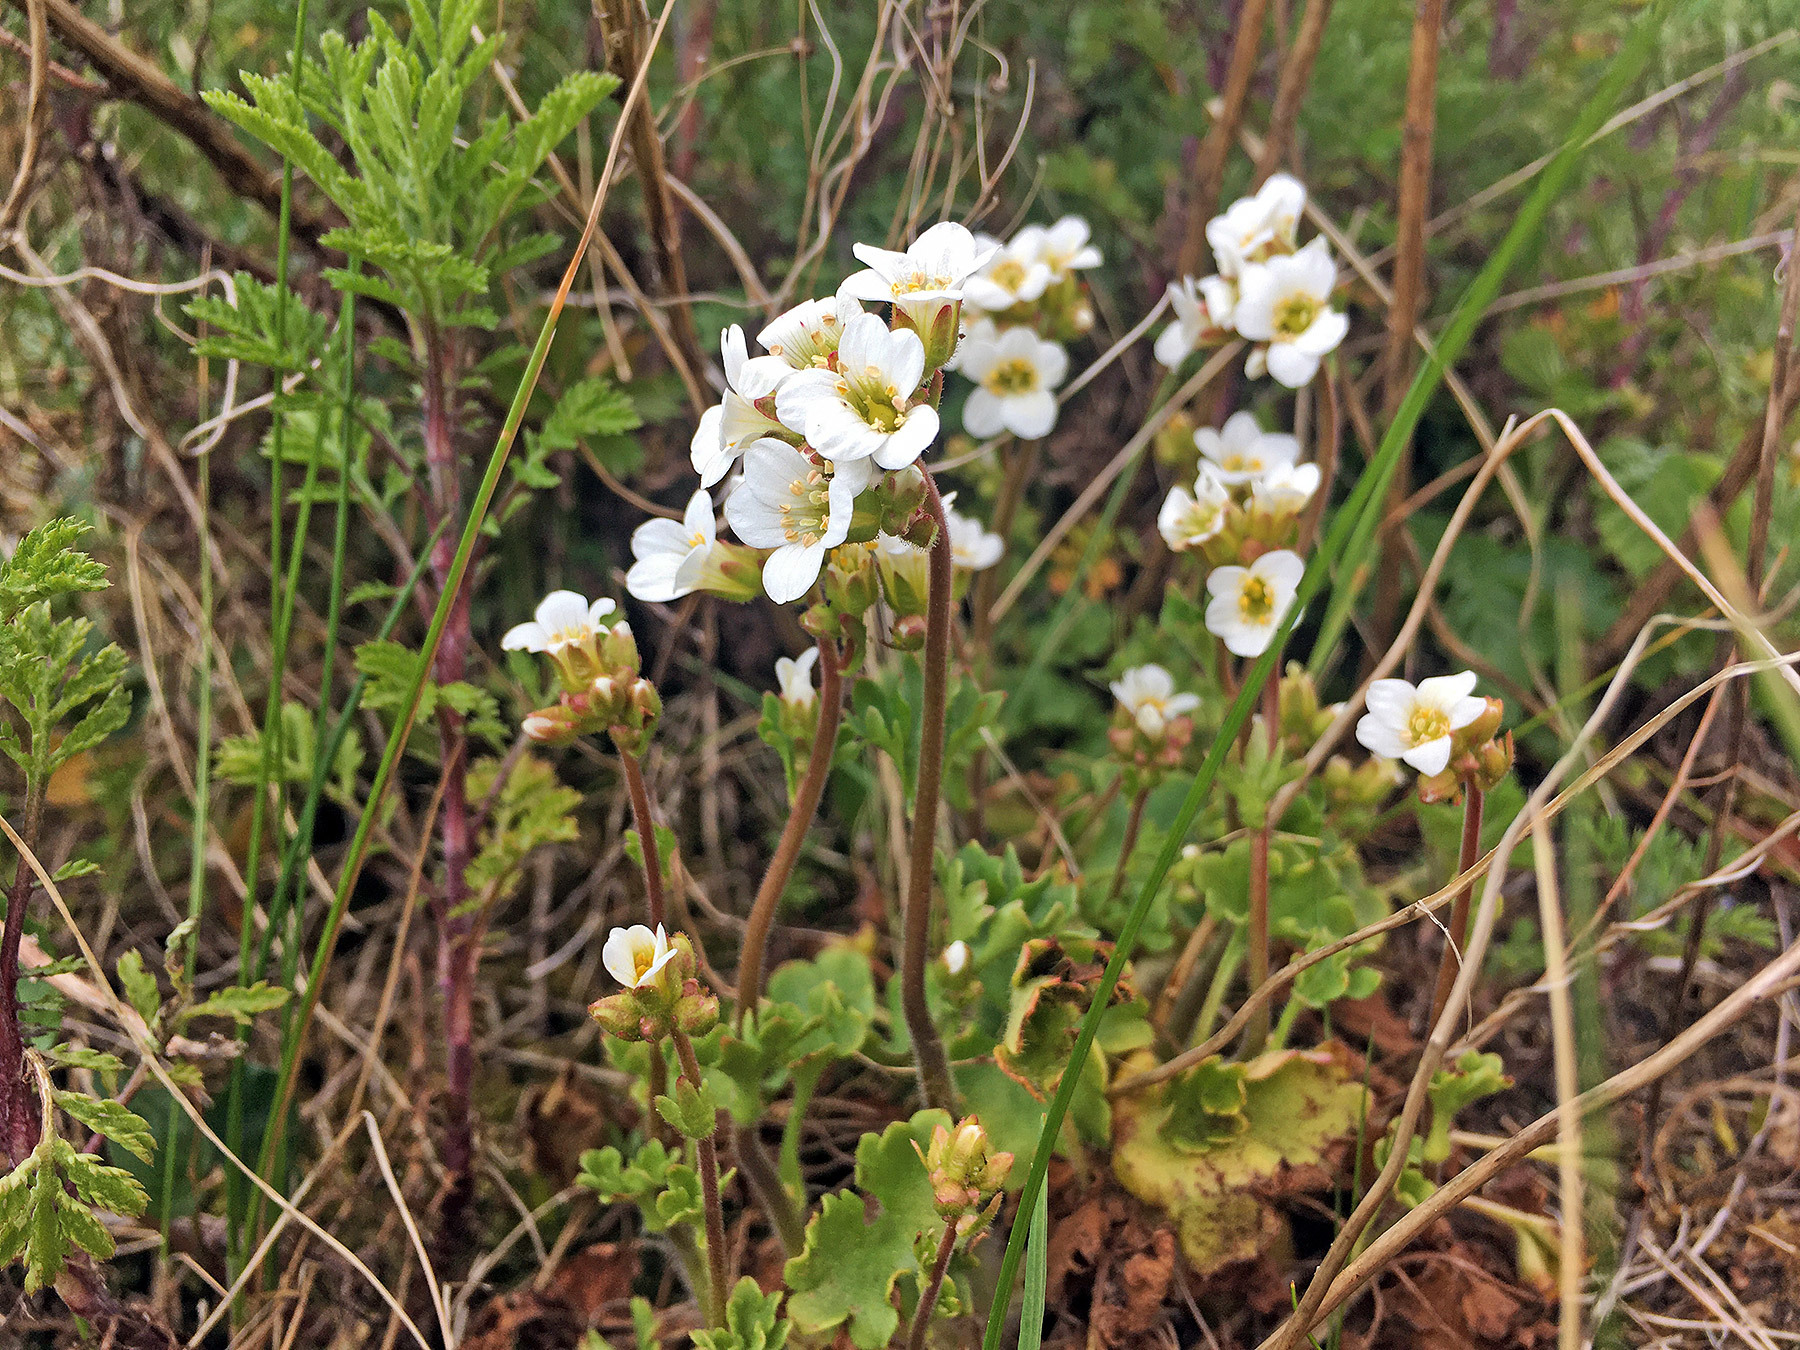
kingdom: Plantae
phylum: Tracheophyta
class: Magnoliopsida
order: Saxifragales
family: Saxifragaceae
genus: Saxifraga
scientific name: Saxifraga granulata
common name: Meadow saxifrage
